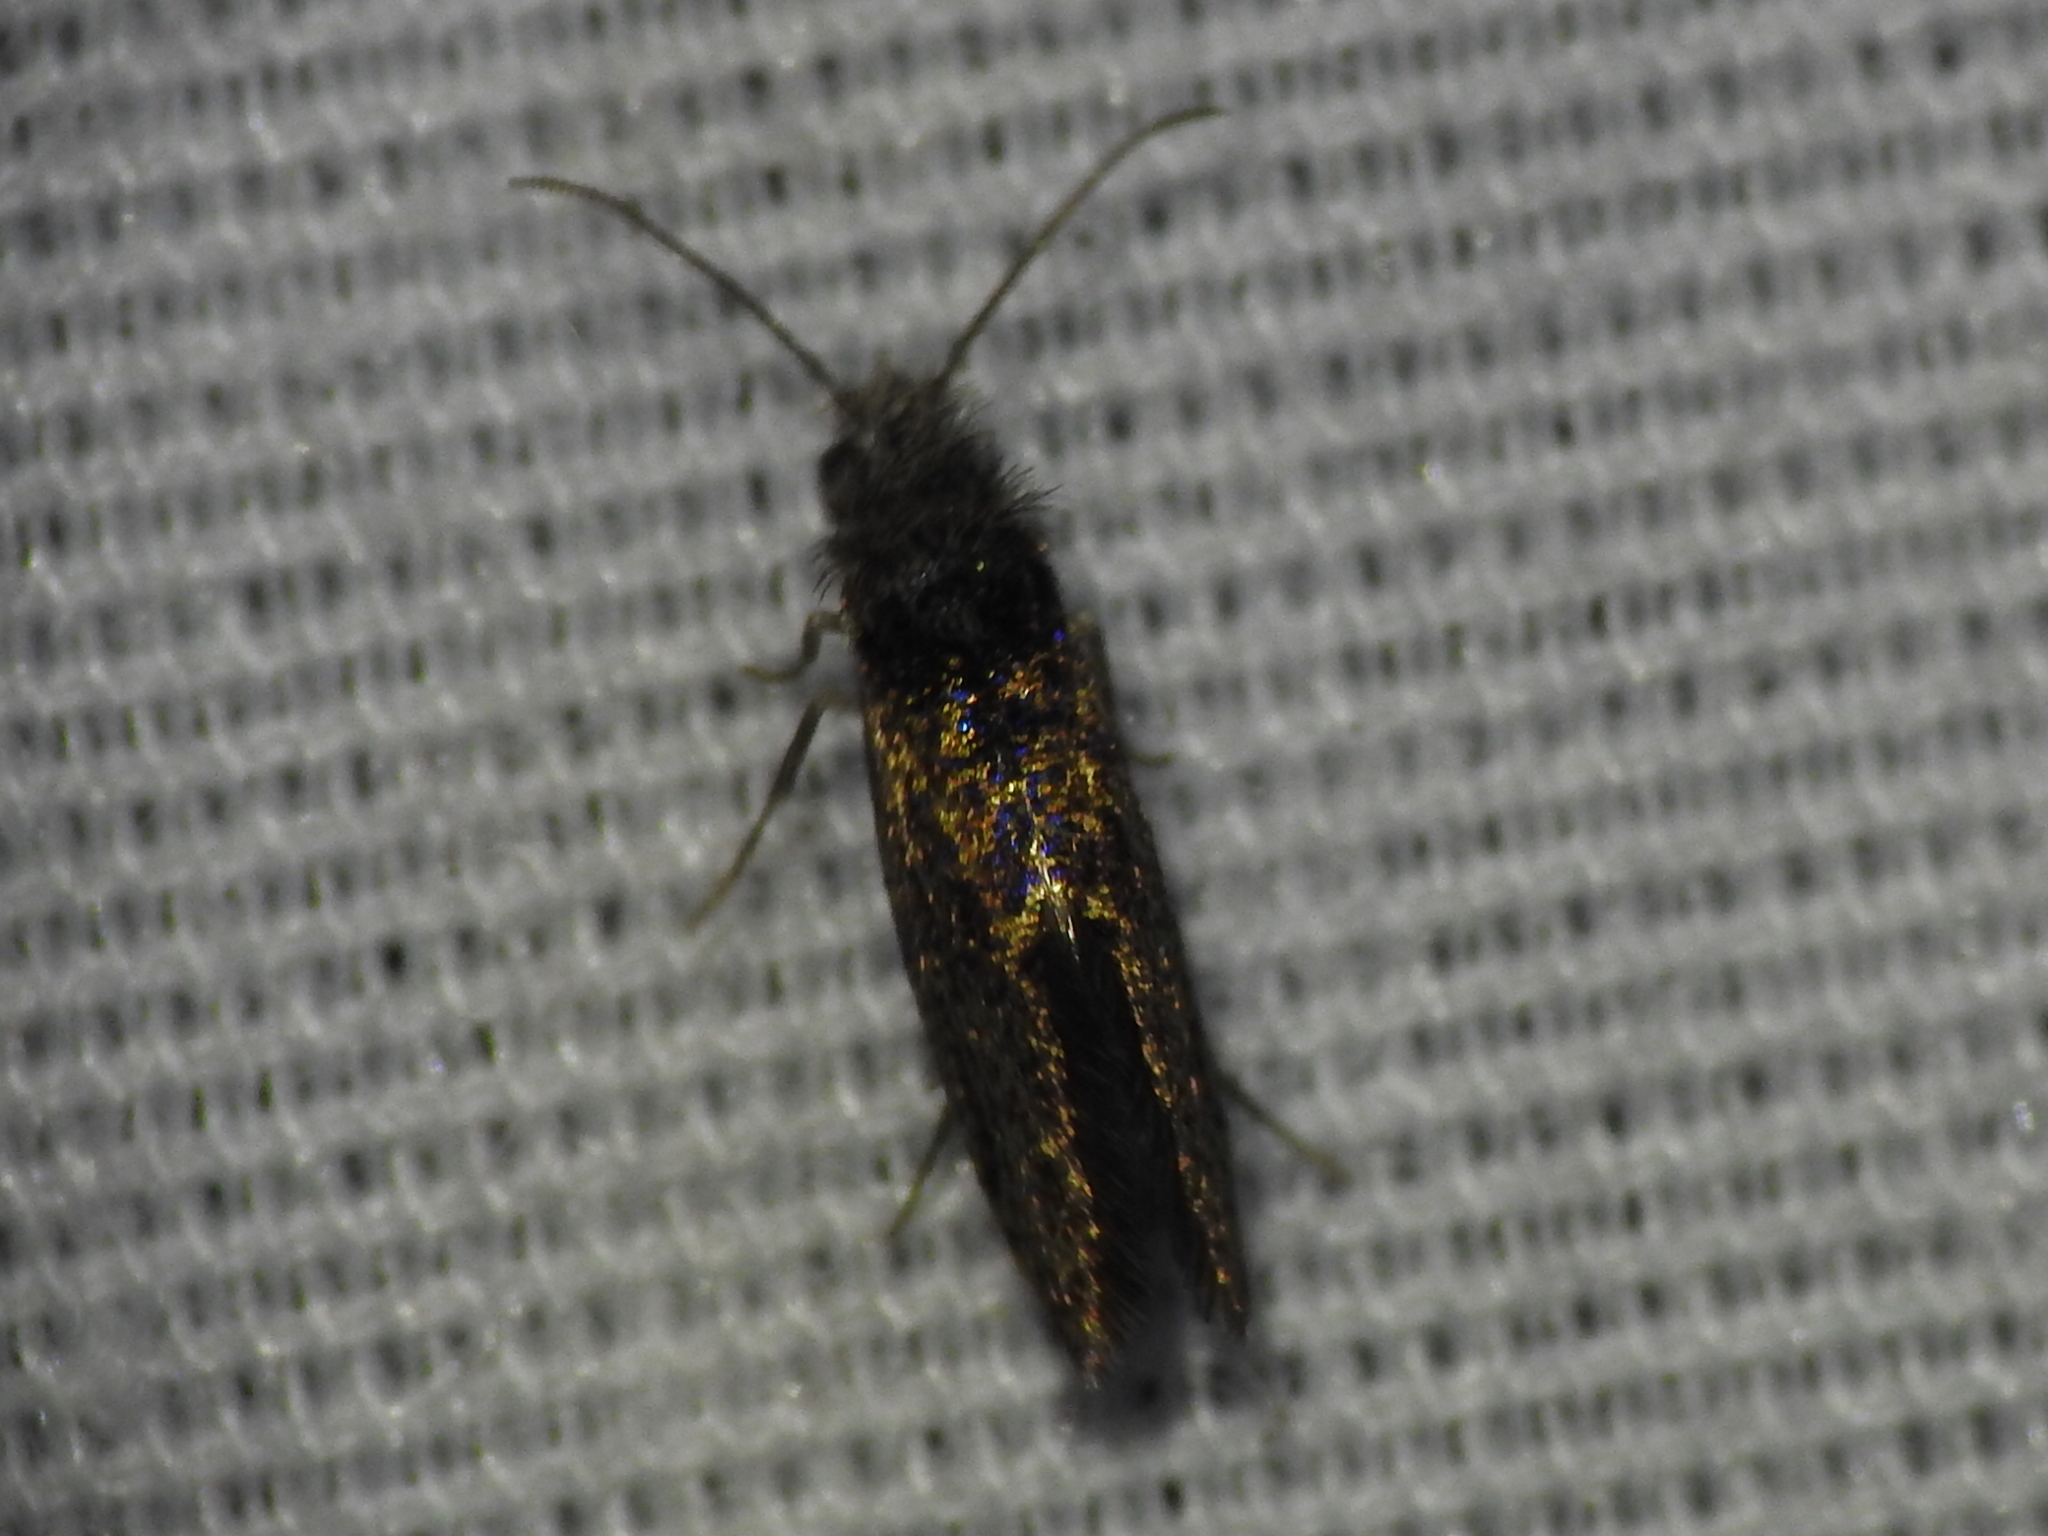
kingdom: Animalia
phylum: Arthropoda
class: Insecta
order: Lepidoptera
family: Eriocraniidae
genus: Dyseriocrania
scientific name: Dyseriocrania griseocapitella
